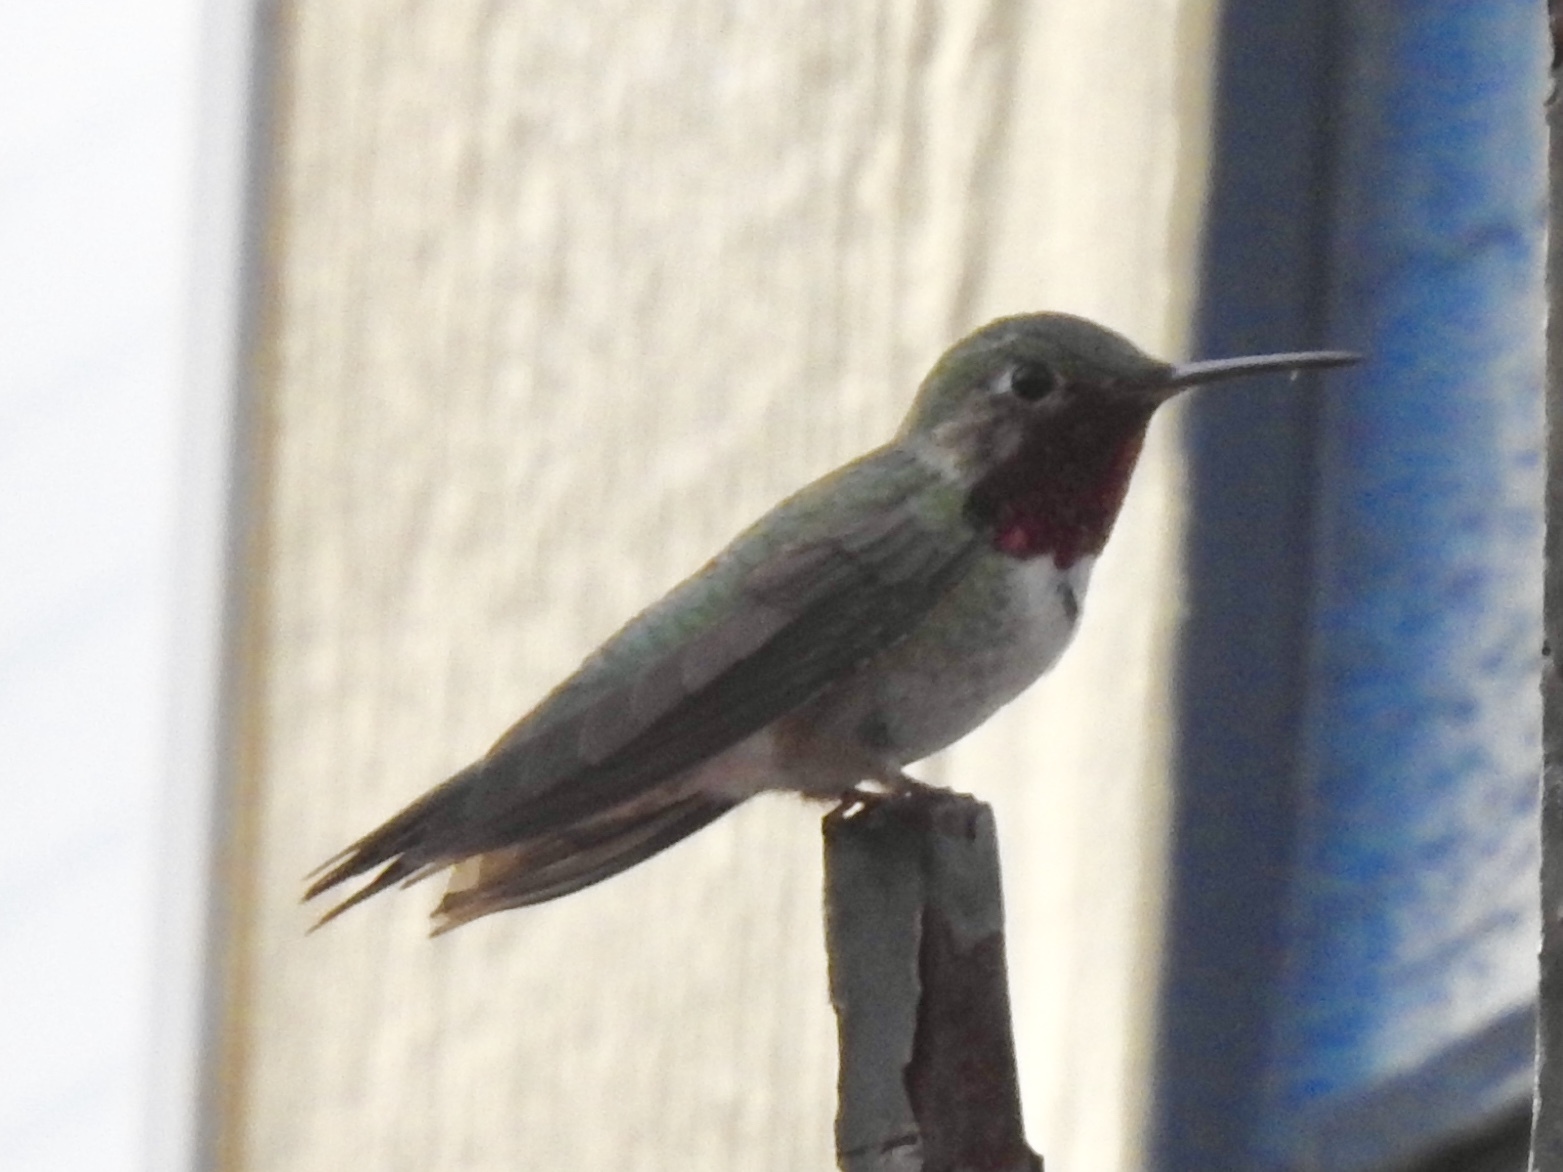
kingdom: Animalia
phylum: Chordata
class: Aves
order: Apodiformes
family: Trochilidae
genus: Selasphorus
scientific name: Selasphorus platycercus
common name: Broad-tailed hummingbird
